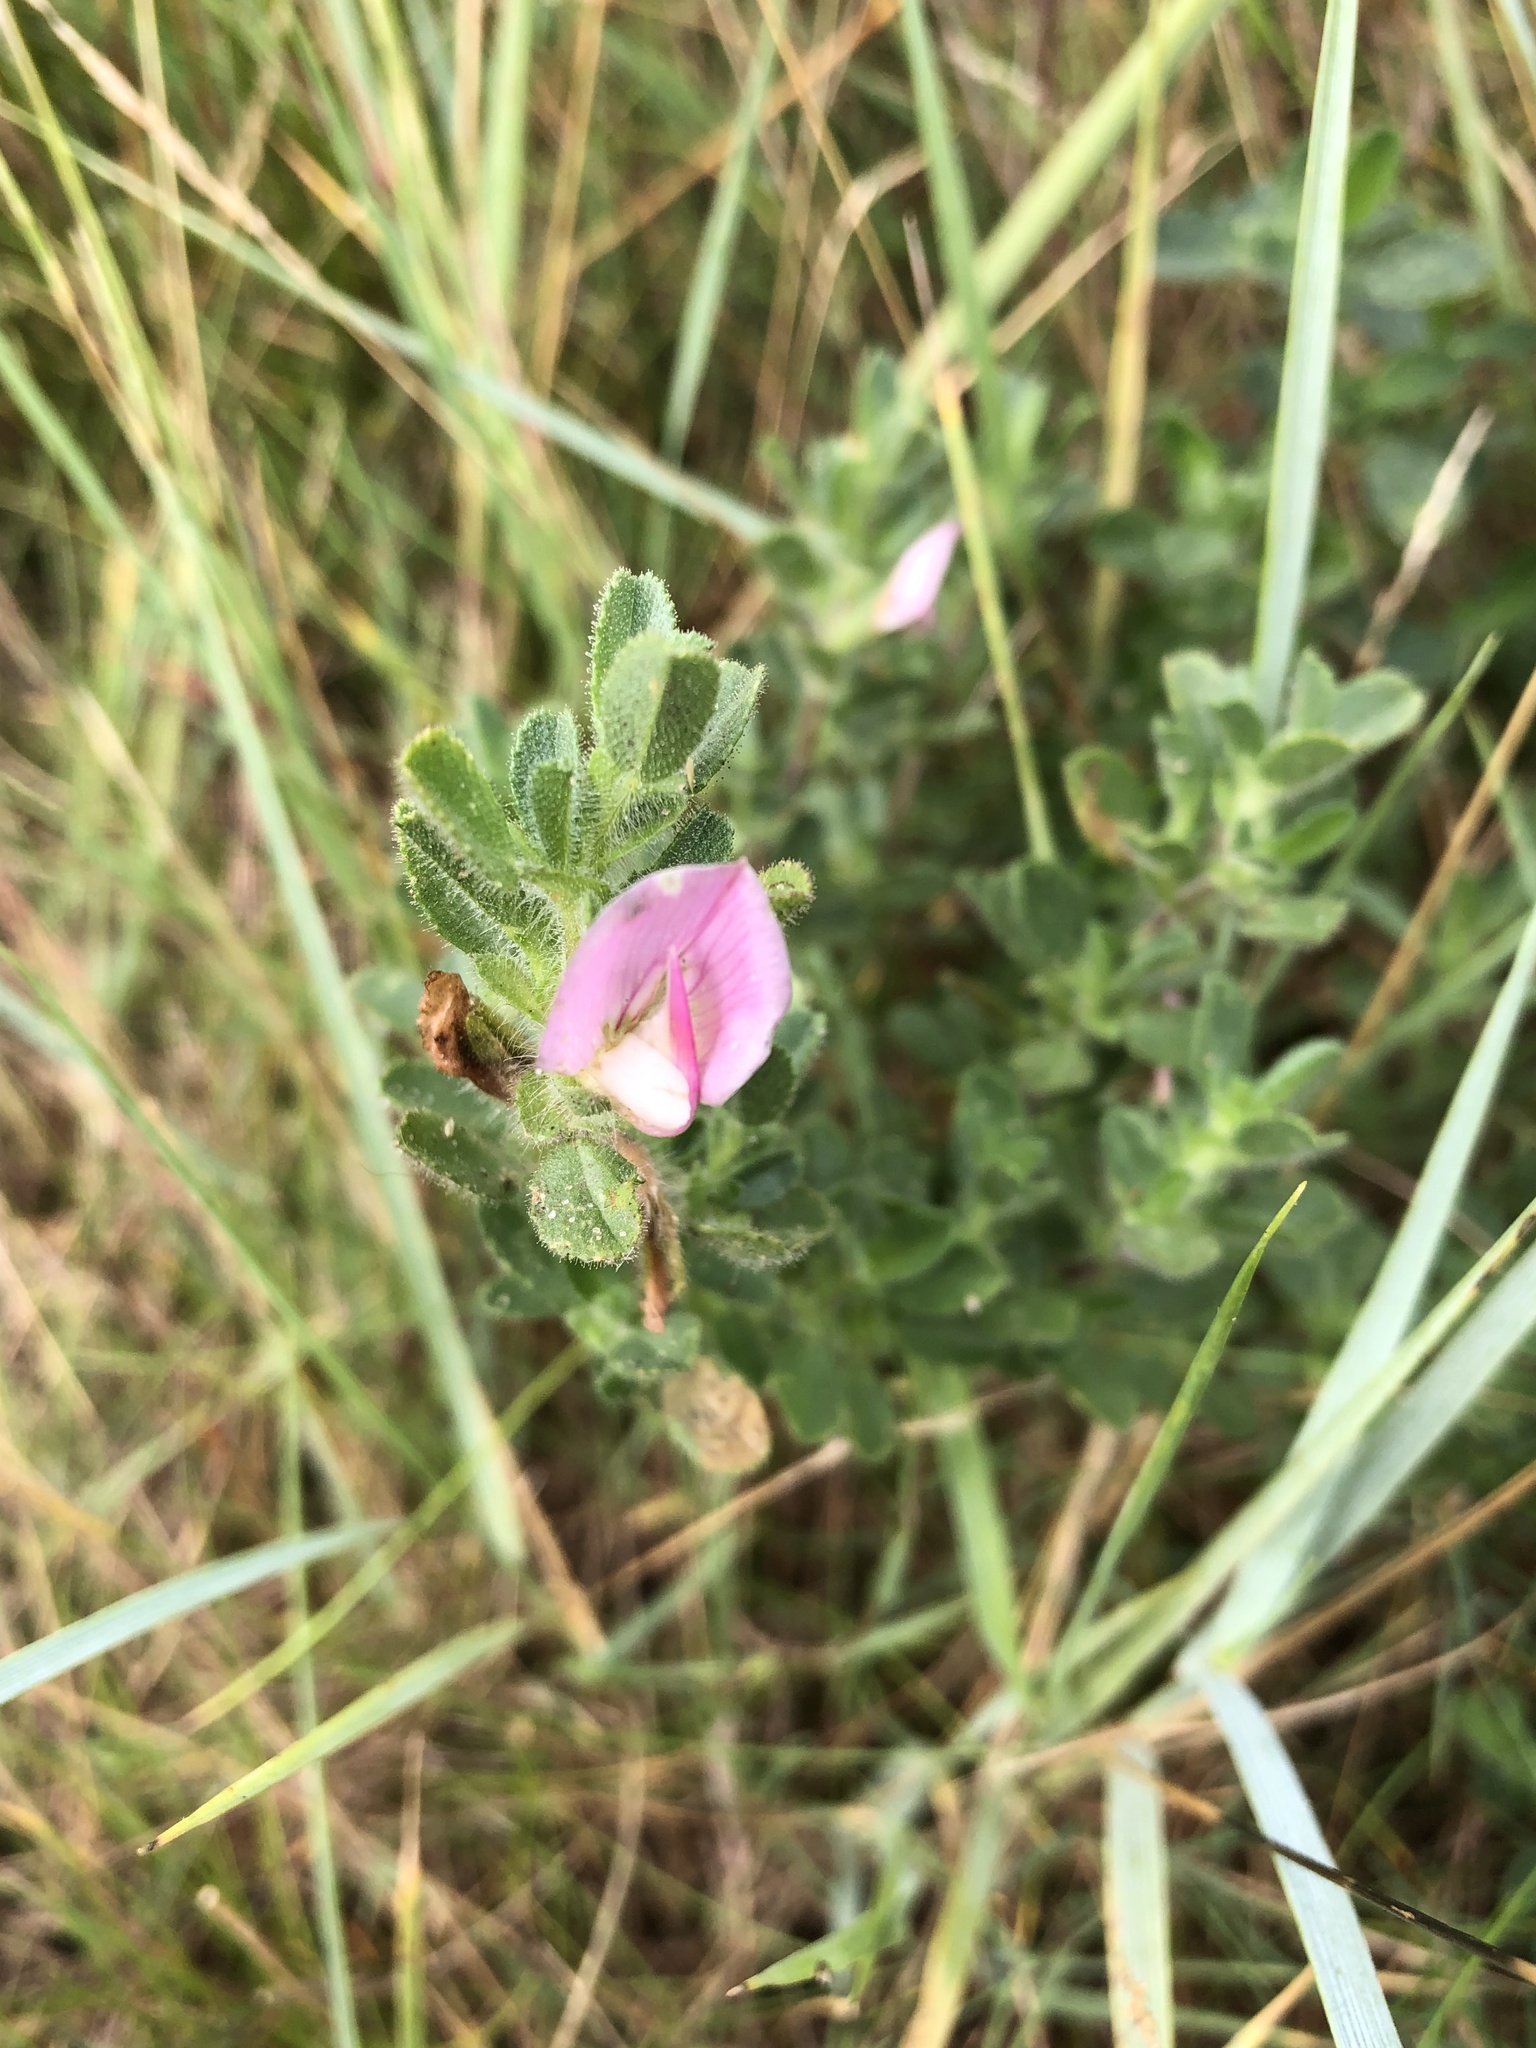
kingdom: Plantae
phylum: Tracheophyta
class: Magnoliopsida
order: Fabales
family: Fabaceae
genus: Ononis
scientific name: Ononis spinosa
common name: Spiny restharrow
